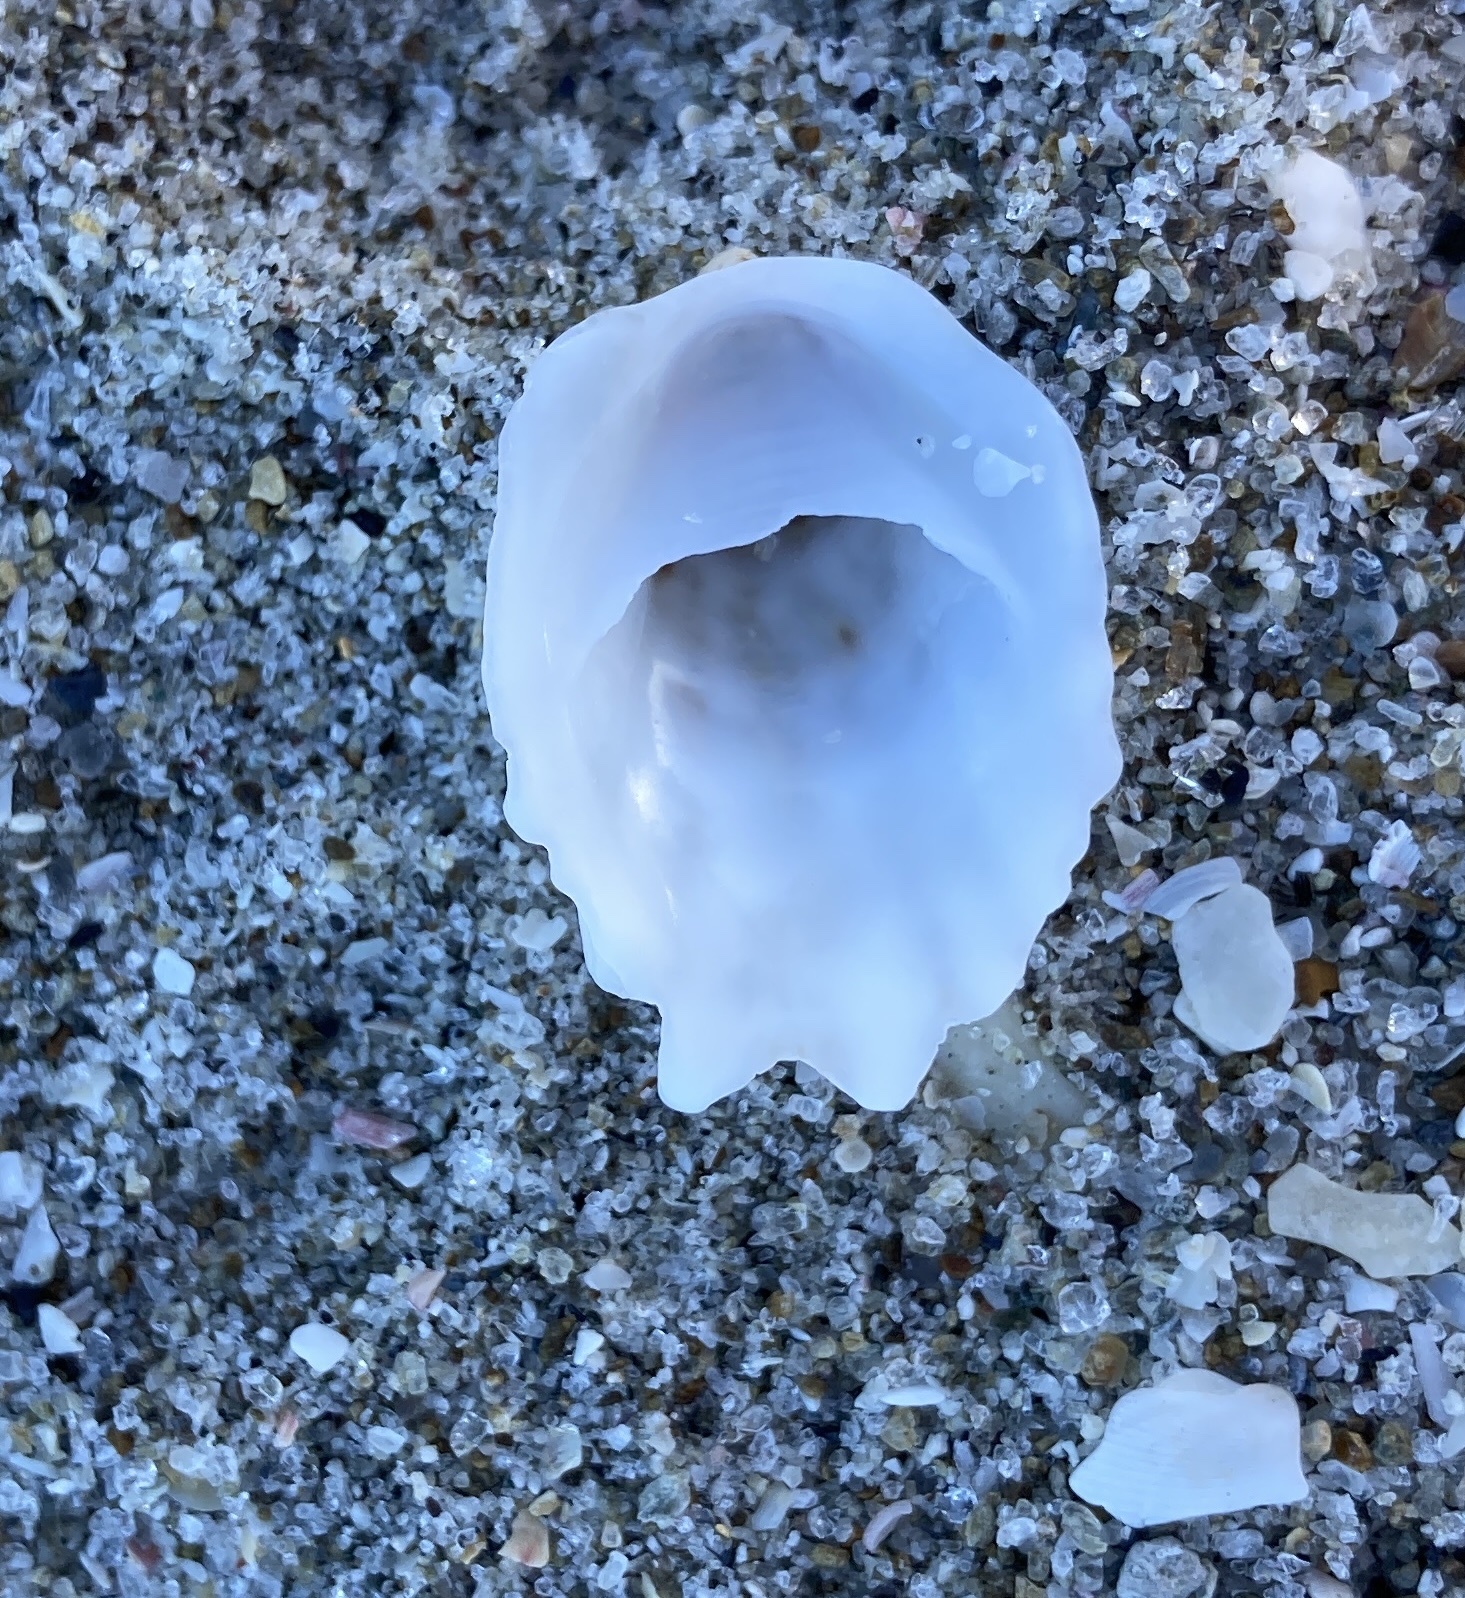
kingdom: Animalia
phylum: Mollusca
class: Gastropoda
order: Littorinimorpha
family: Calyptraeidae
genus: Maoricrypta
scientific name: Maoricrypta costata
